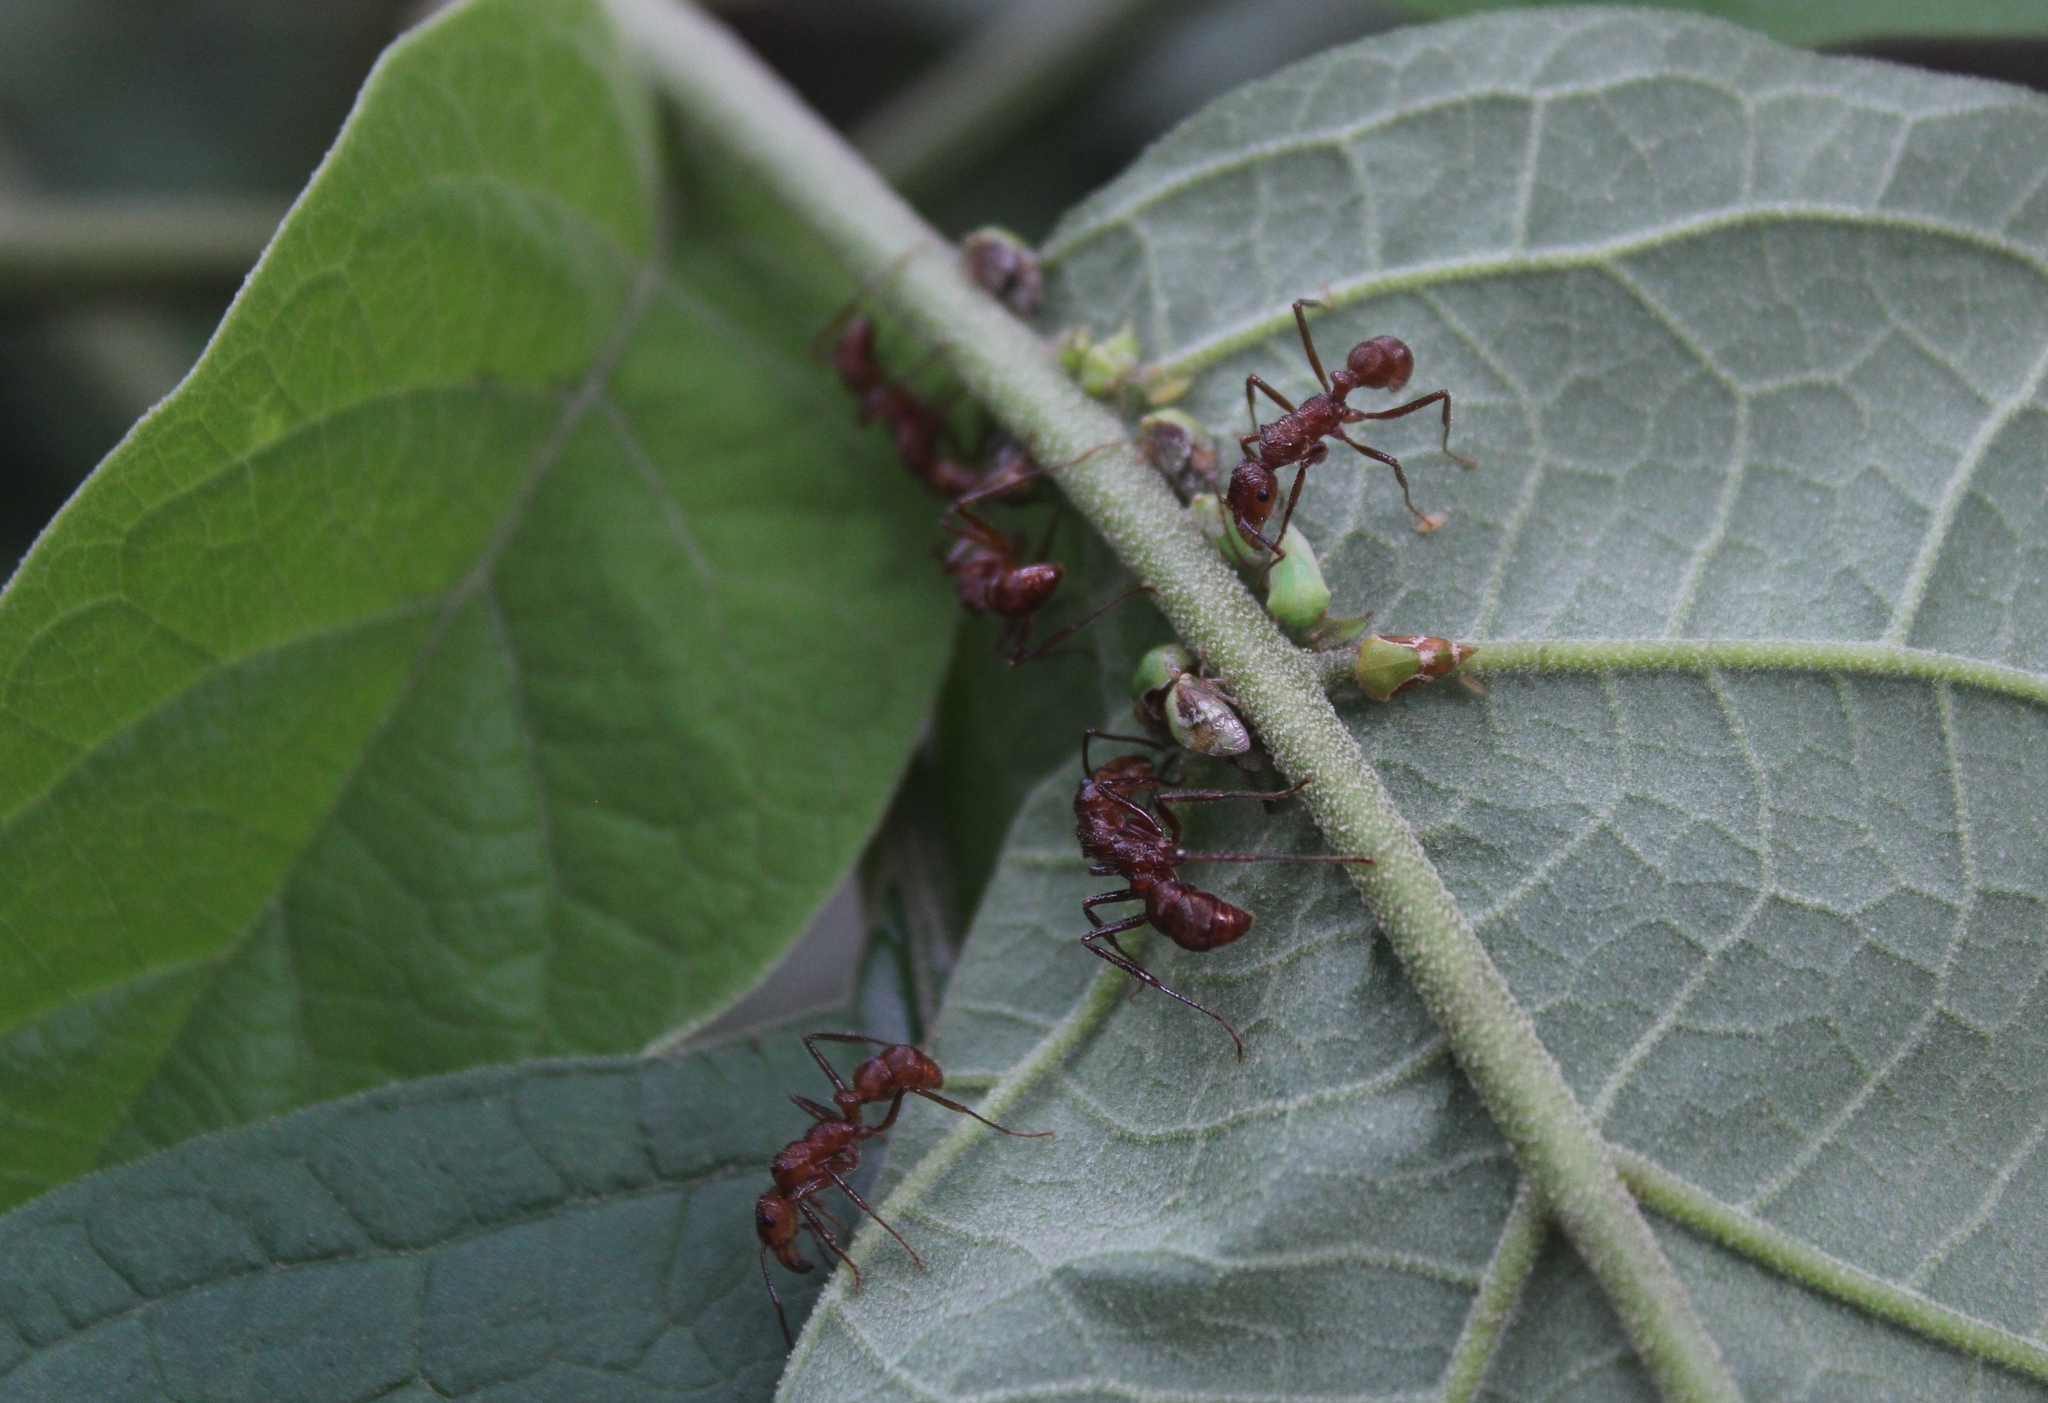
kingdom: Animalia
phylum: Arthropoda
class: Insecta
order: Hymenoptera
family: Formicidae
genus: Ectatomma
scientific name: Ectatomma tuberculatum
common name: Ant
